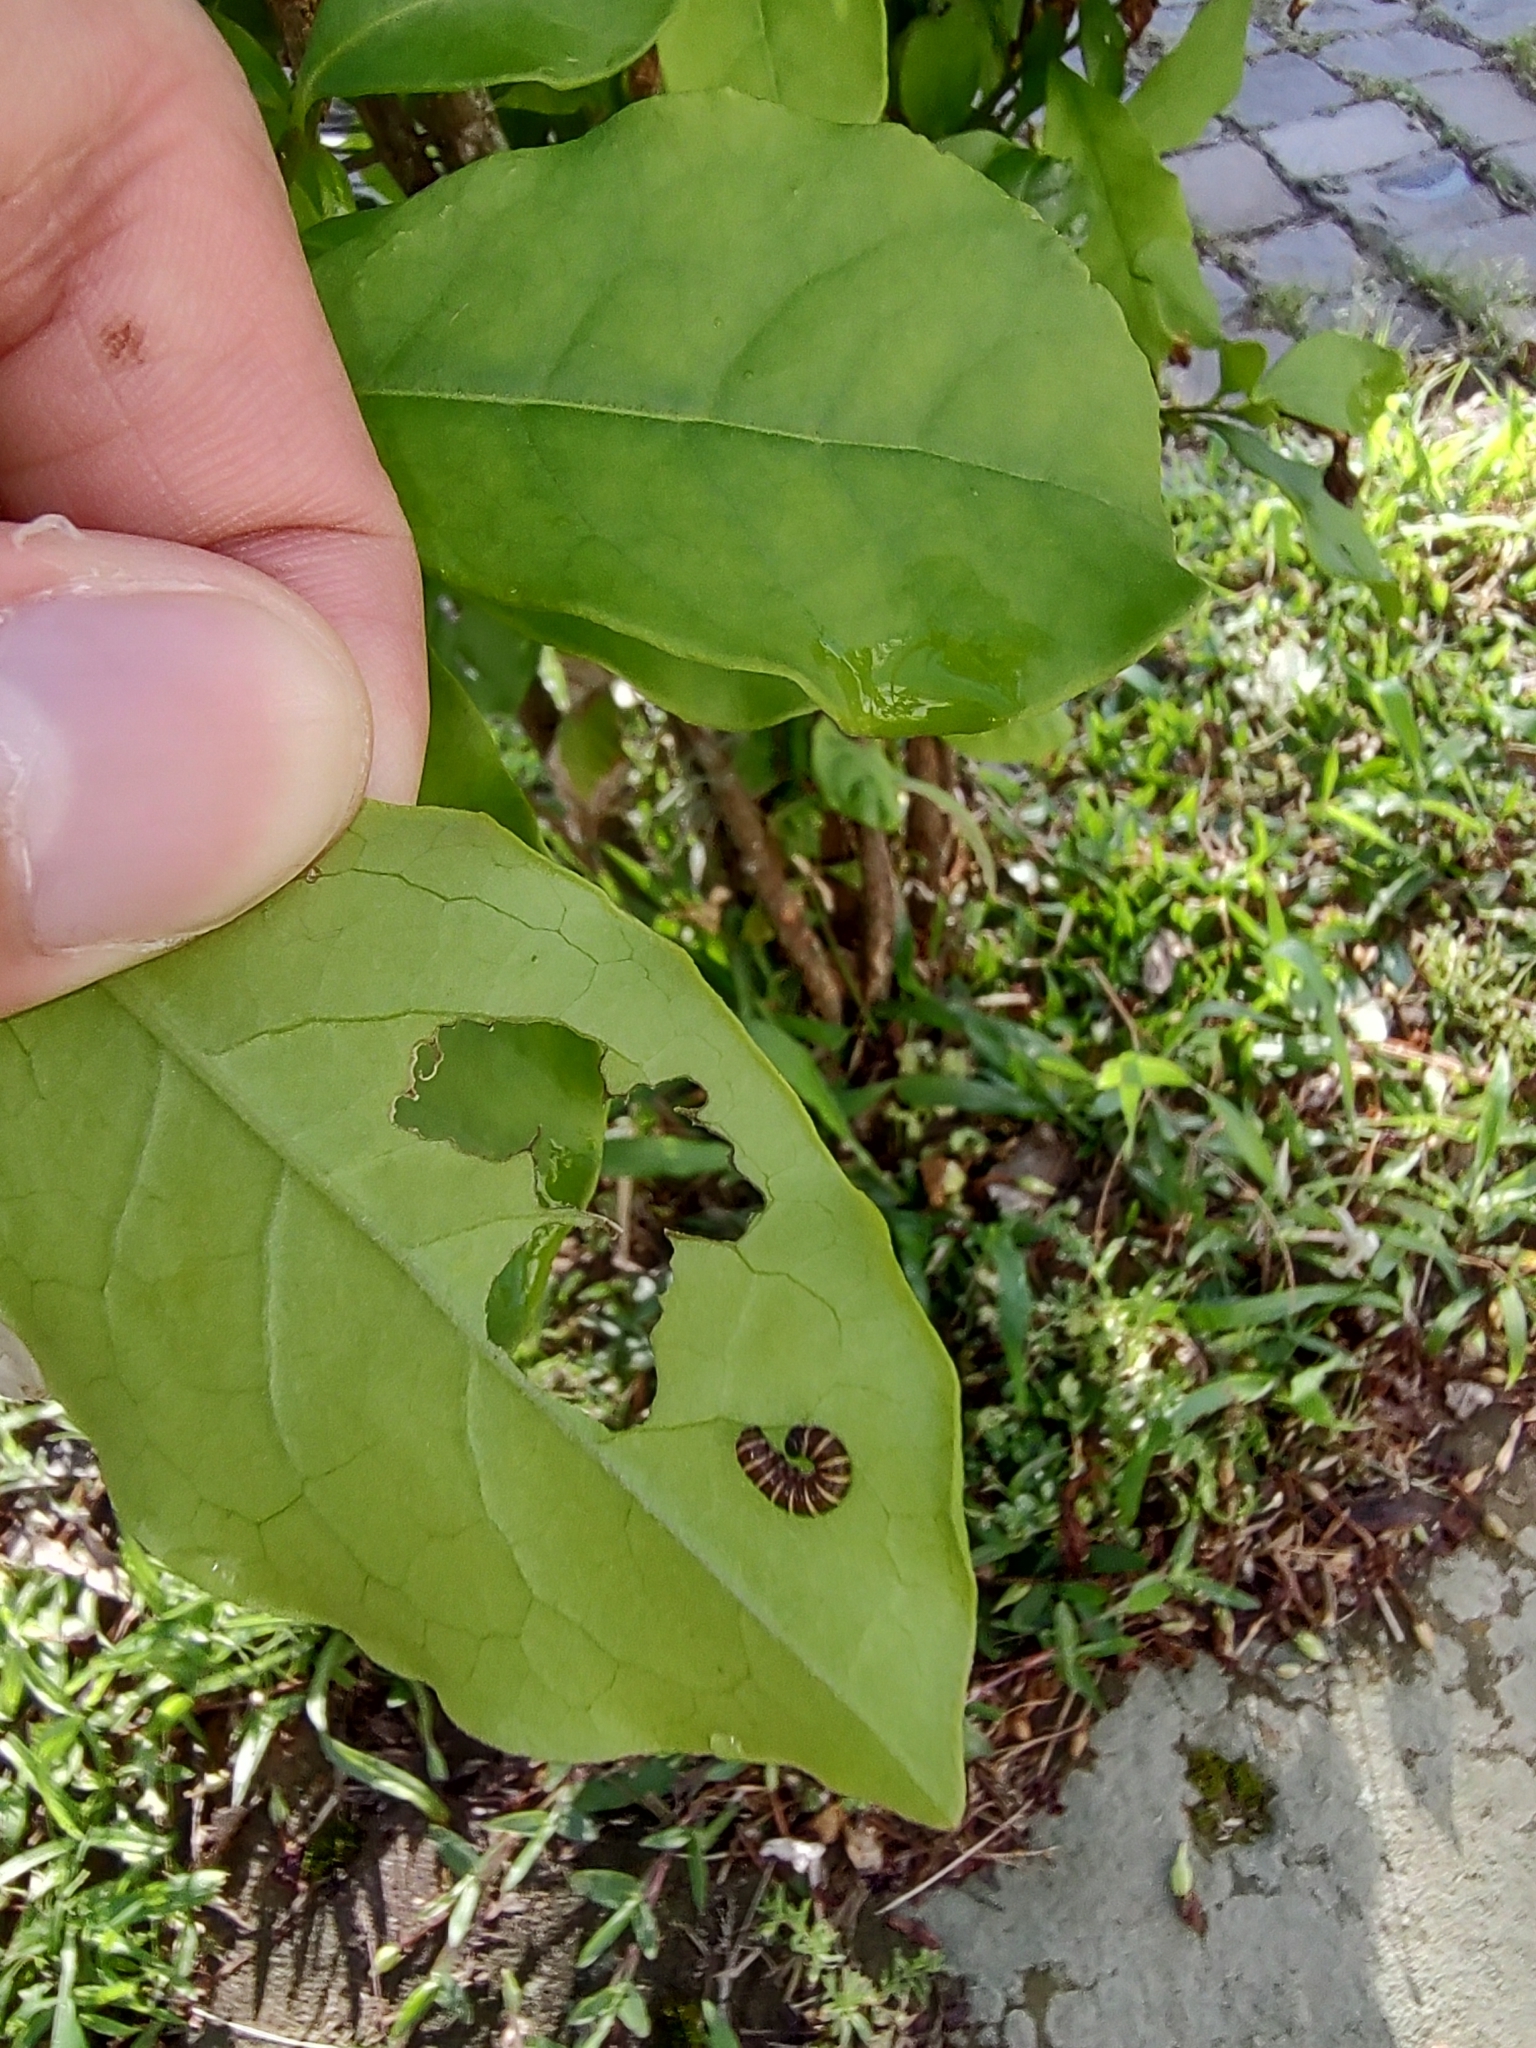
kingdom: Animalia
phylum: Arthropoda
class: Insecta
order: Lepidoptera
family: Nymphalidae
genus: Methona
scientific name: Methona themisto
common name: Themisto amberwing
